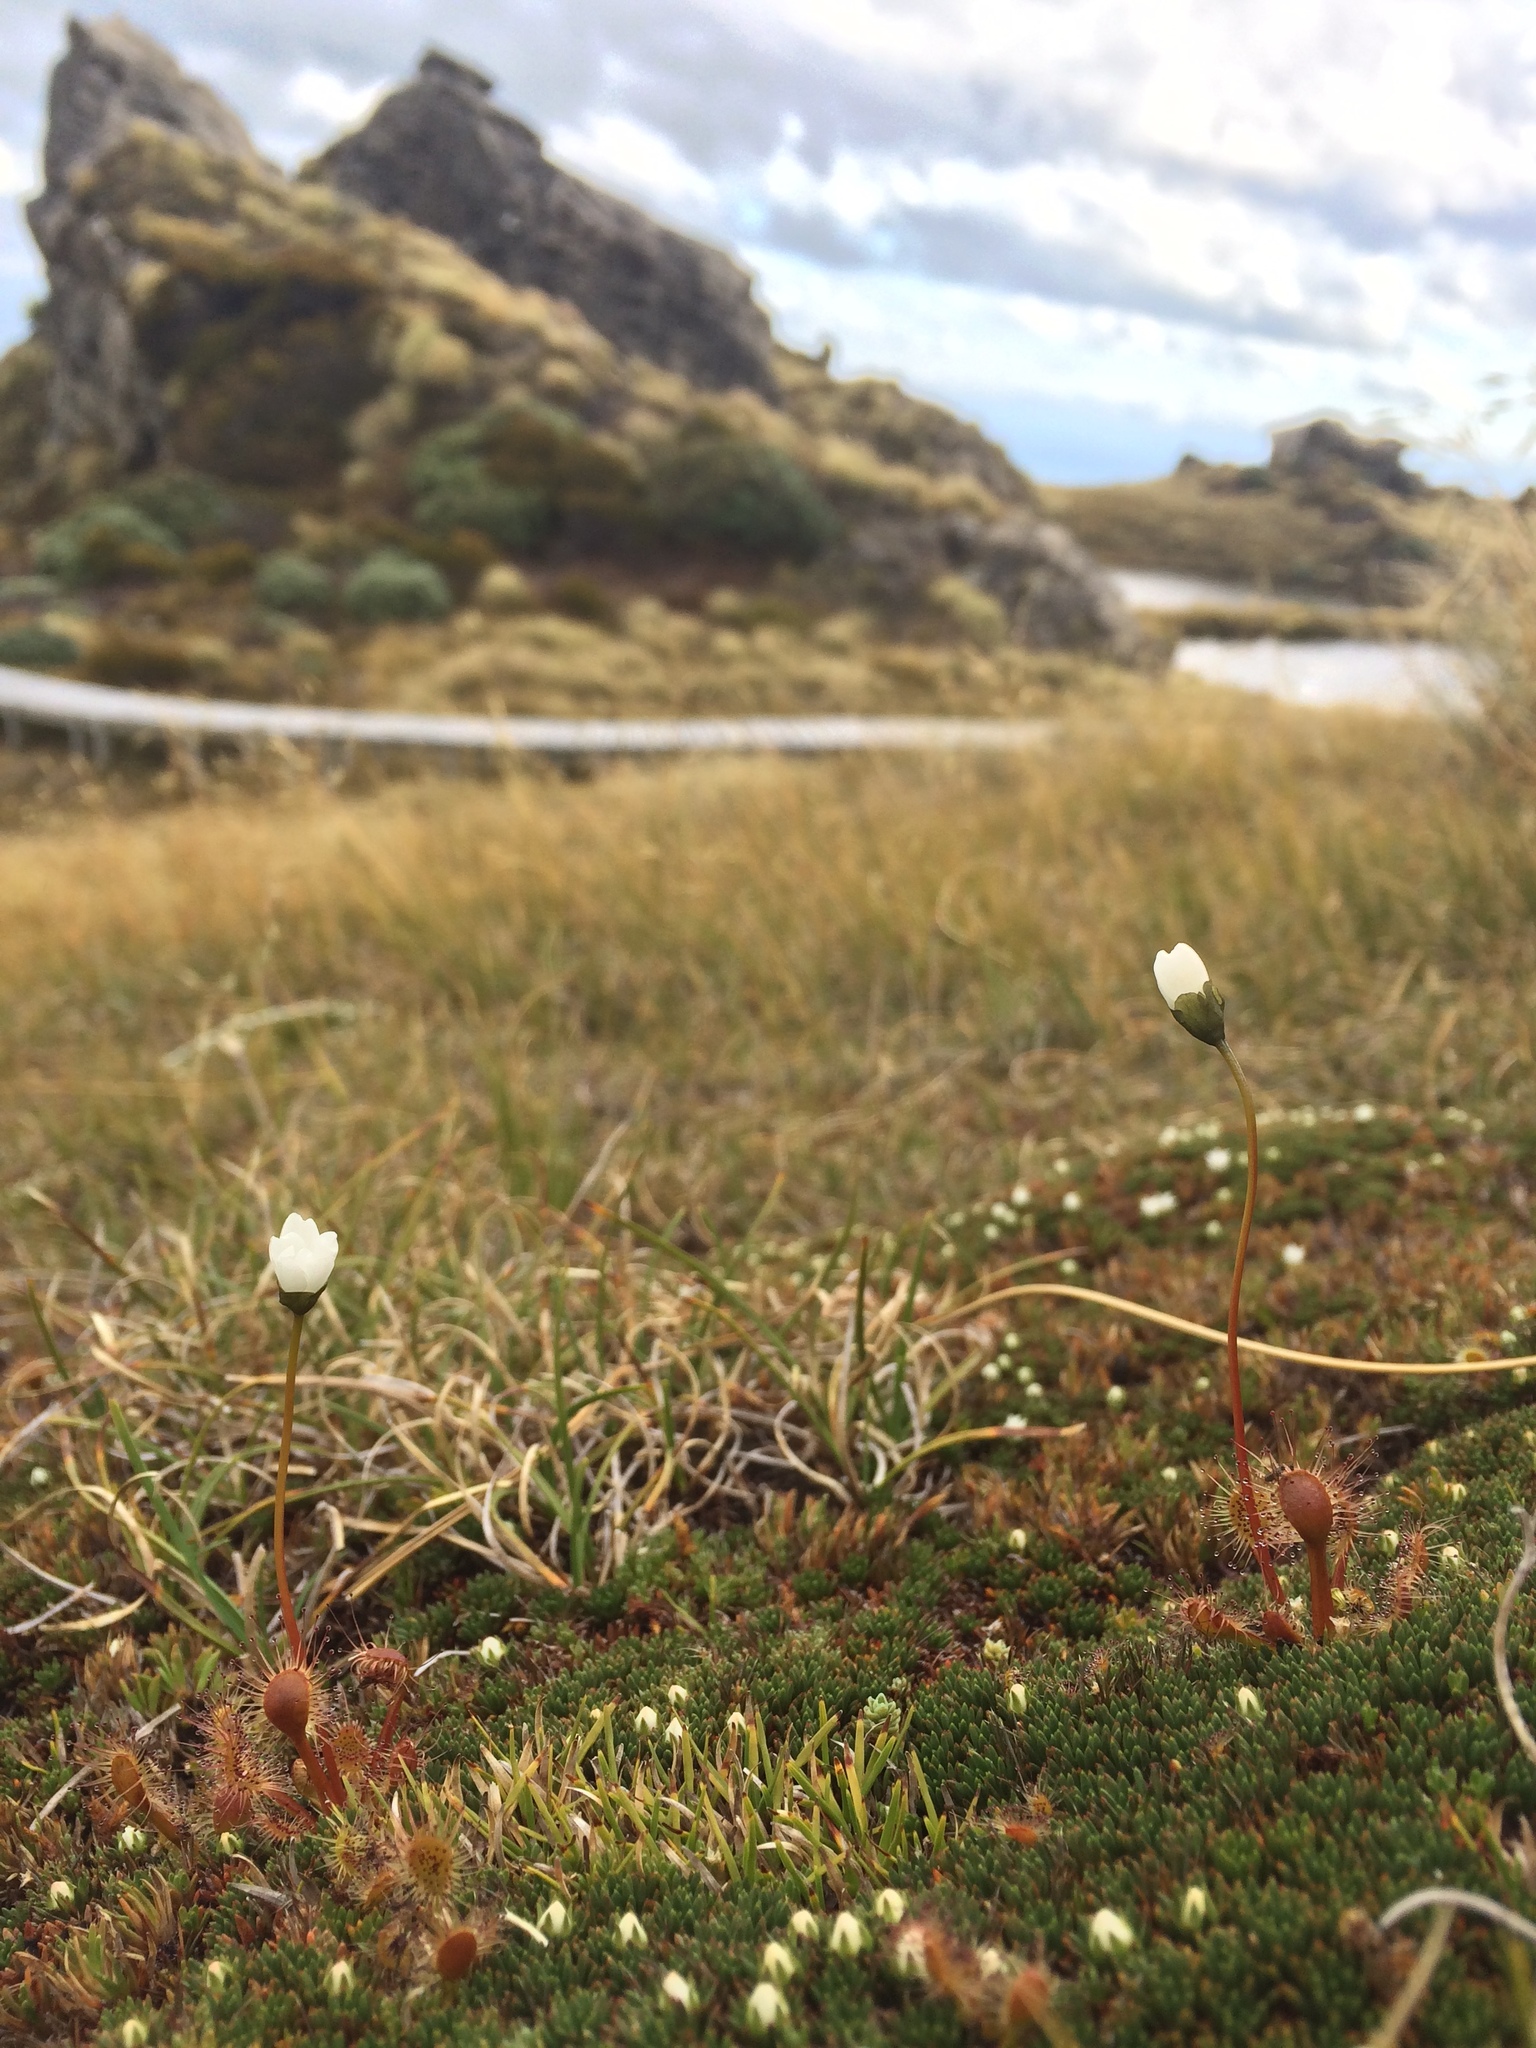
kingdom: Plantae
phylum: Tracheophyta
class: Magnoliopsida
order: Caryophyllales
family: Droseraceae
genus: Drosera
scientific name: Drosera stenopetala
